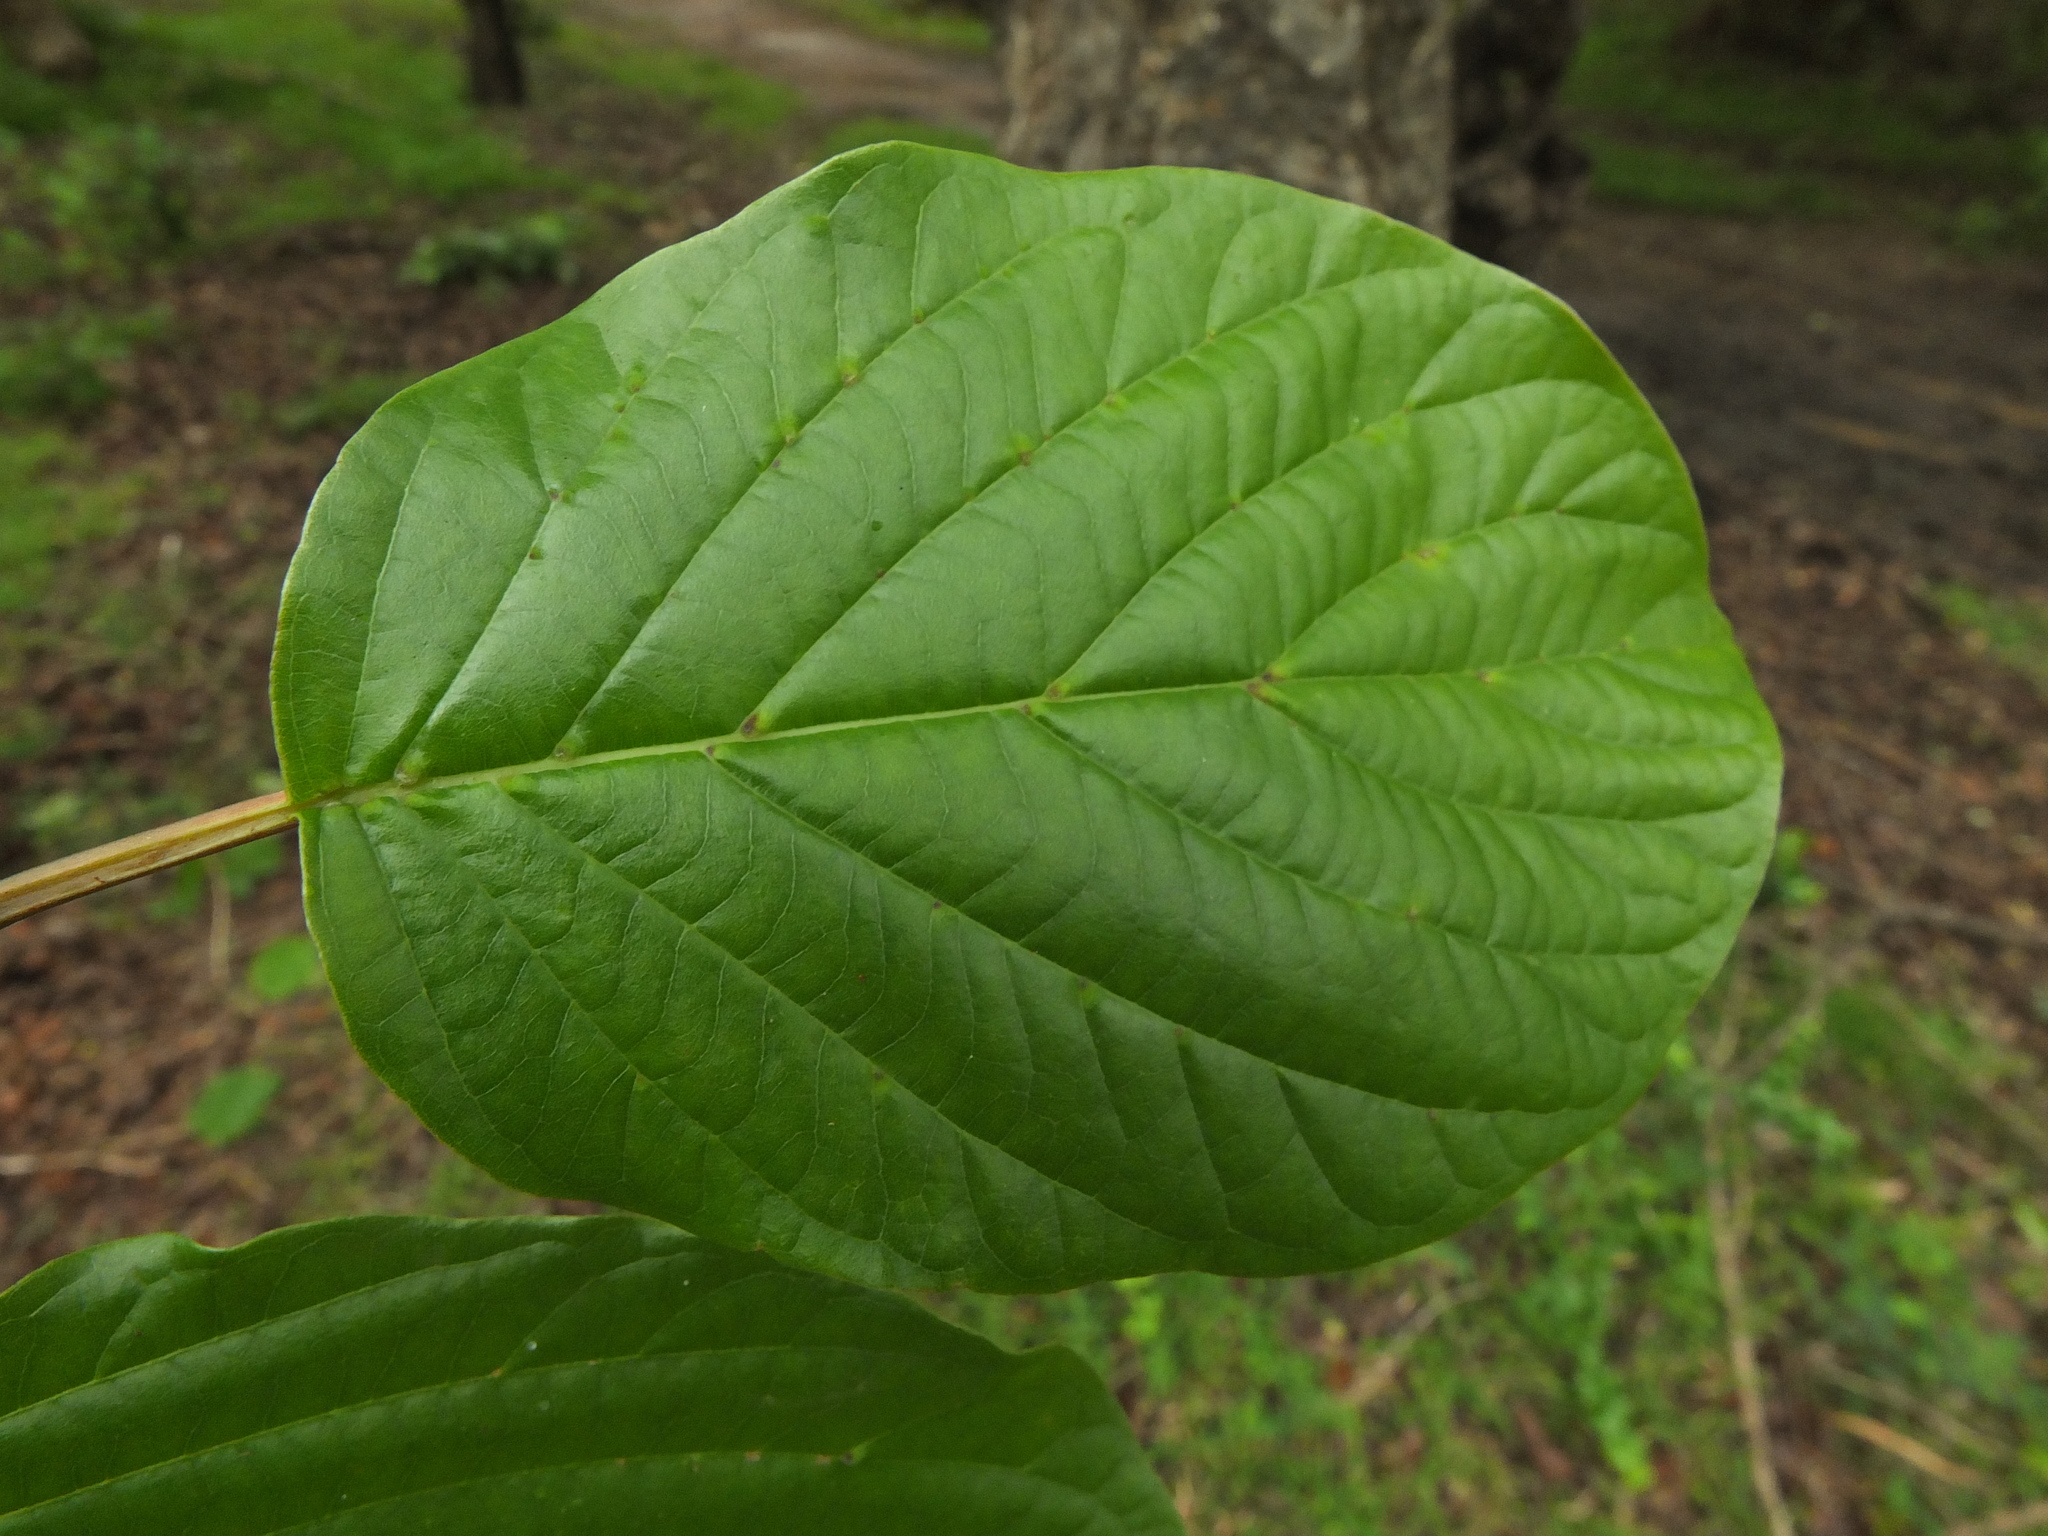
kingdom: Plantae
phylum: Tracheophyta
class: Magnoliopsida
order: Gentianales
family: Rubiaceae
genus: Mitragyna
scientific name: Mitragyna parvifolia
